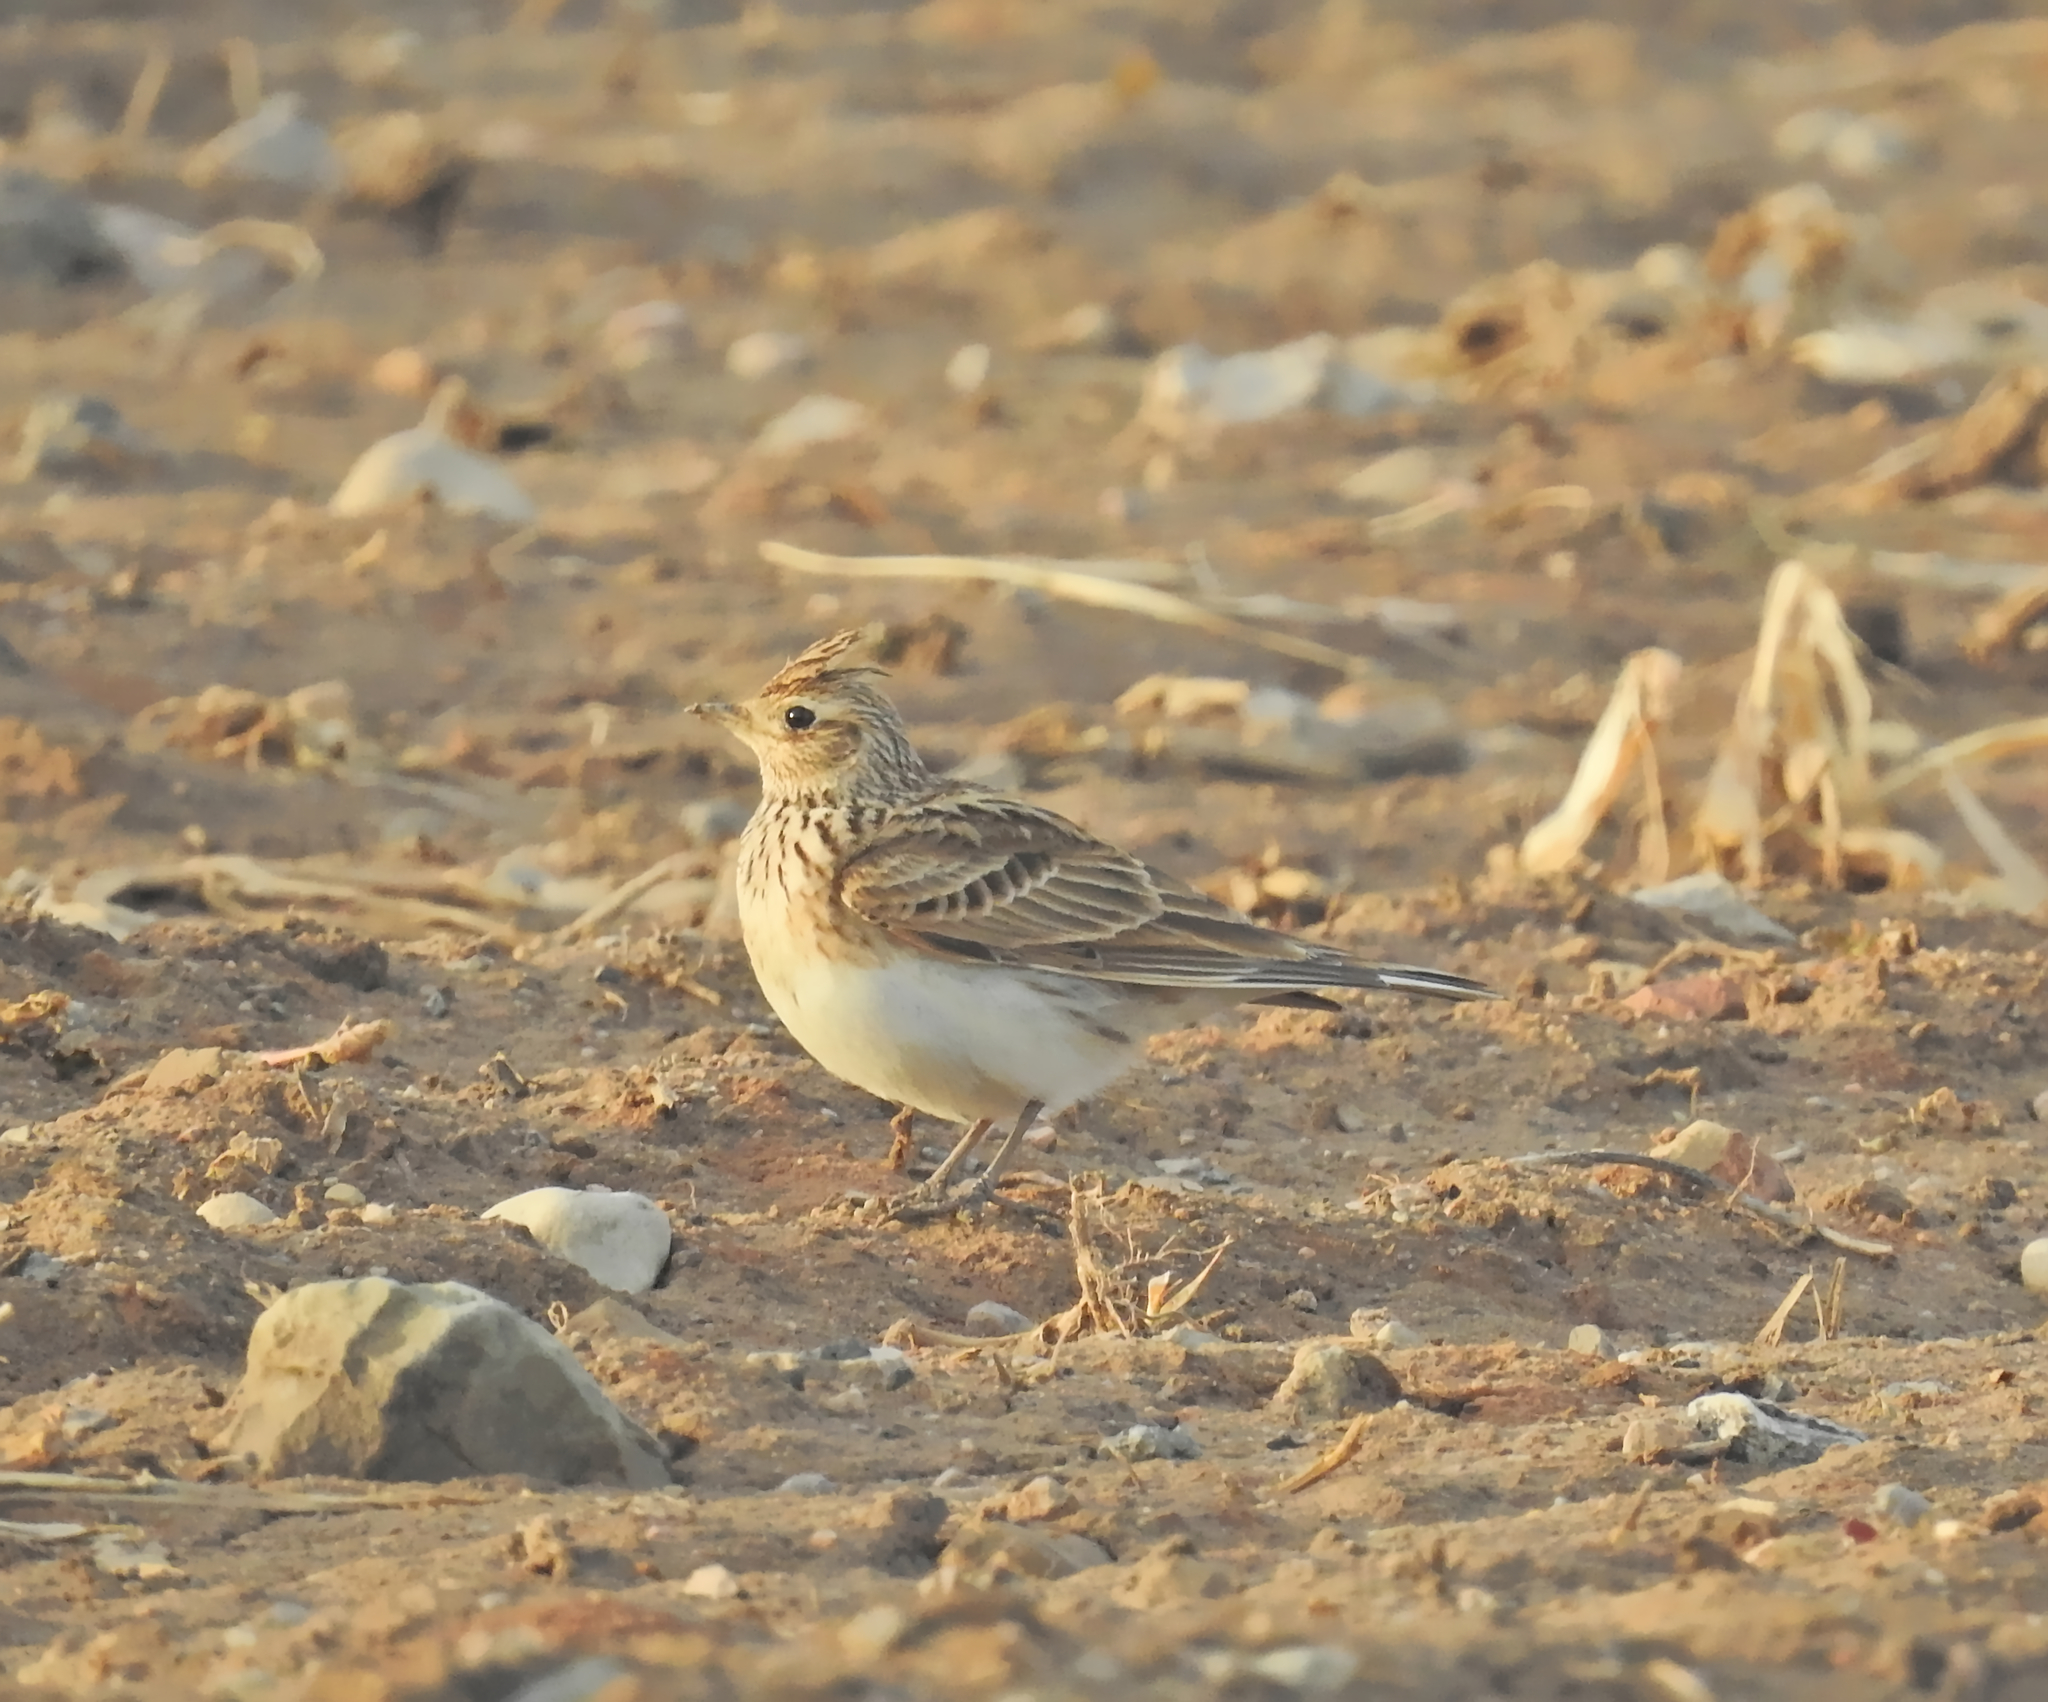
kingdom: Animalia
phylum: Chordata
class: Aves
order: Passeriformes
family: Alaudidae
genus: Alauda
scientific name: Alauda arvensis
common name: Eurasian skylark
